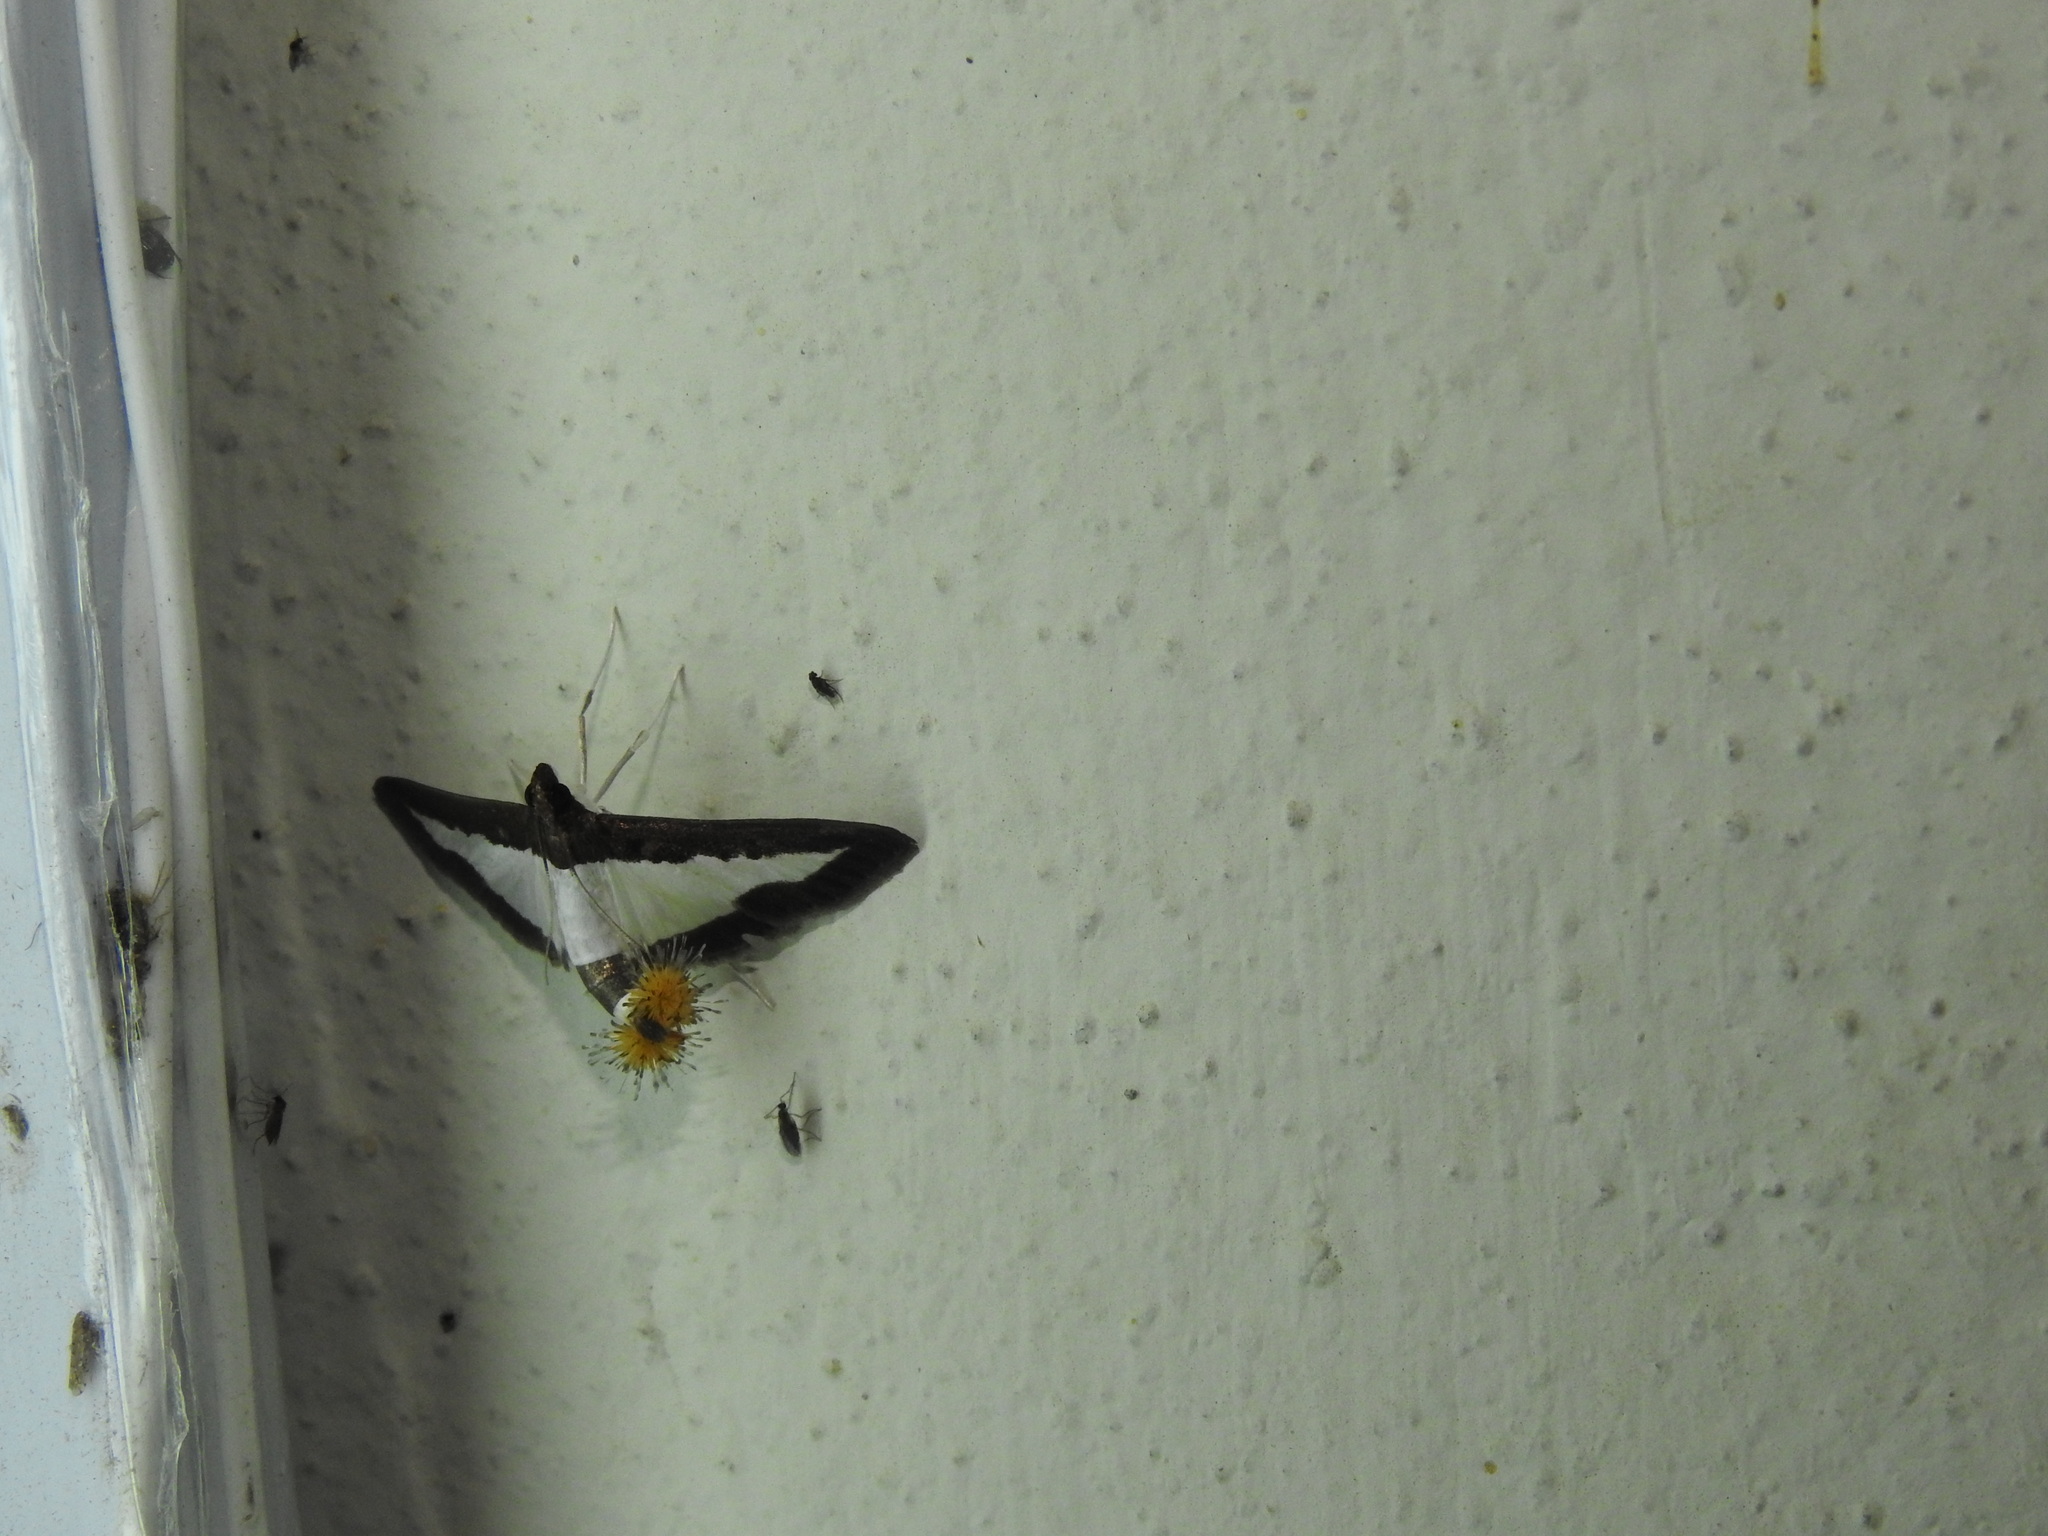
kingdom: Animalia
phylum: Arthropoda
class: Insecta
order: Lepidoptera
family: Crambidae
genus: Diaphania
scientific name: Diaphania indica
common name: Cucumber moth
